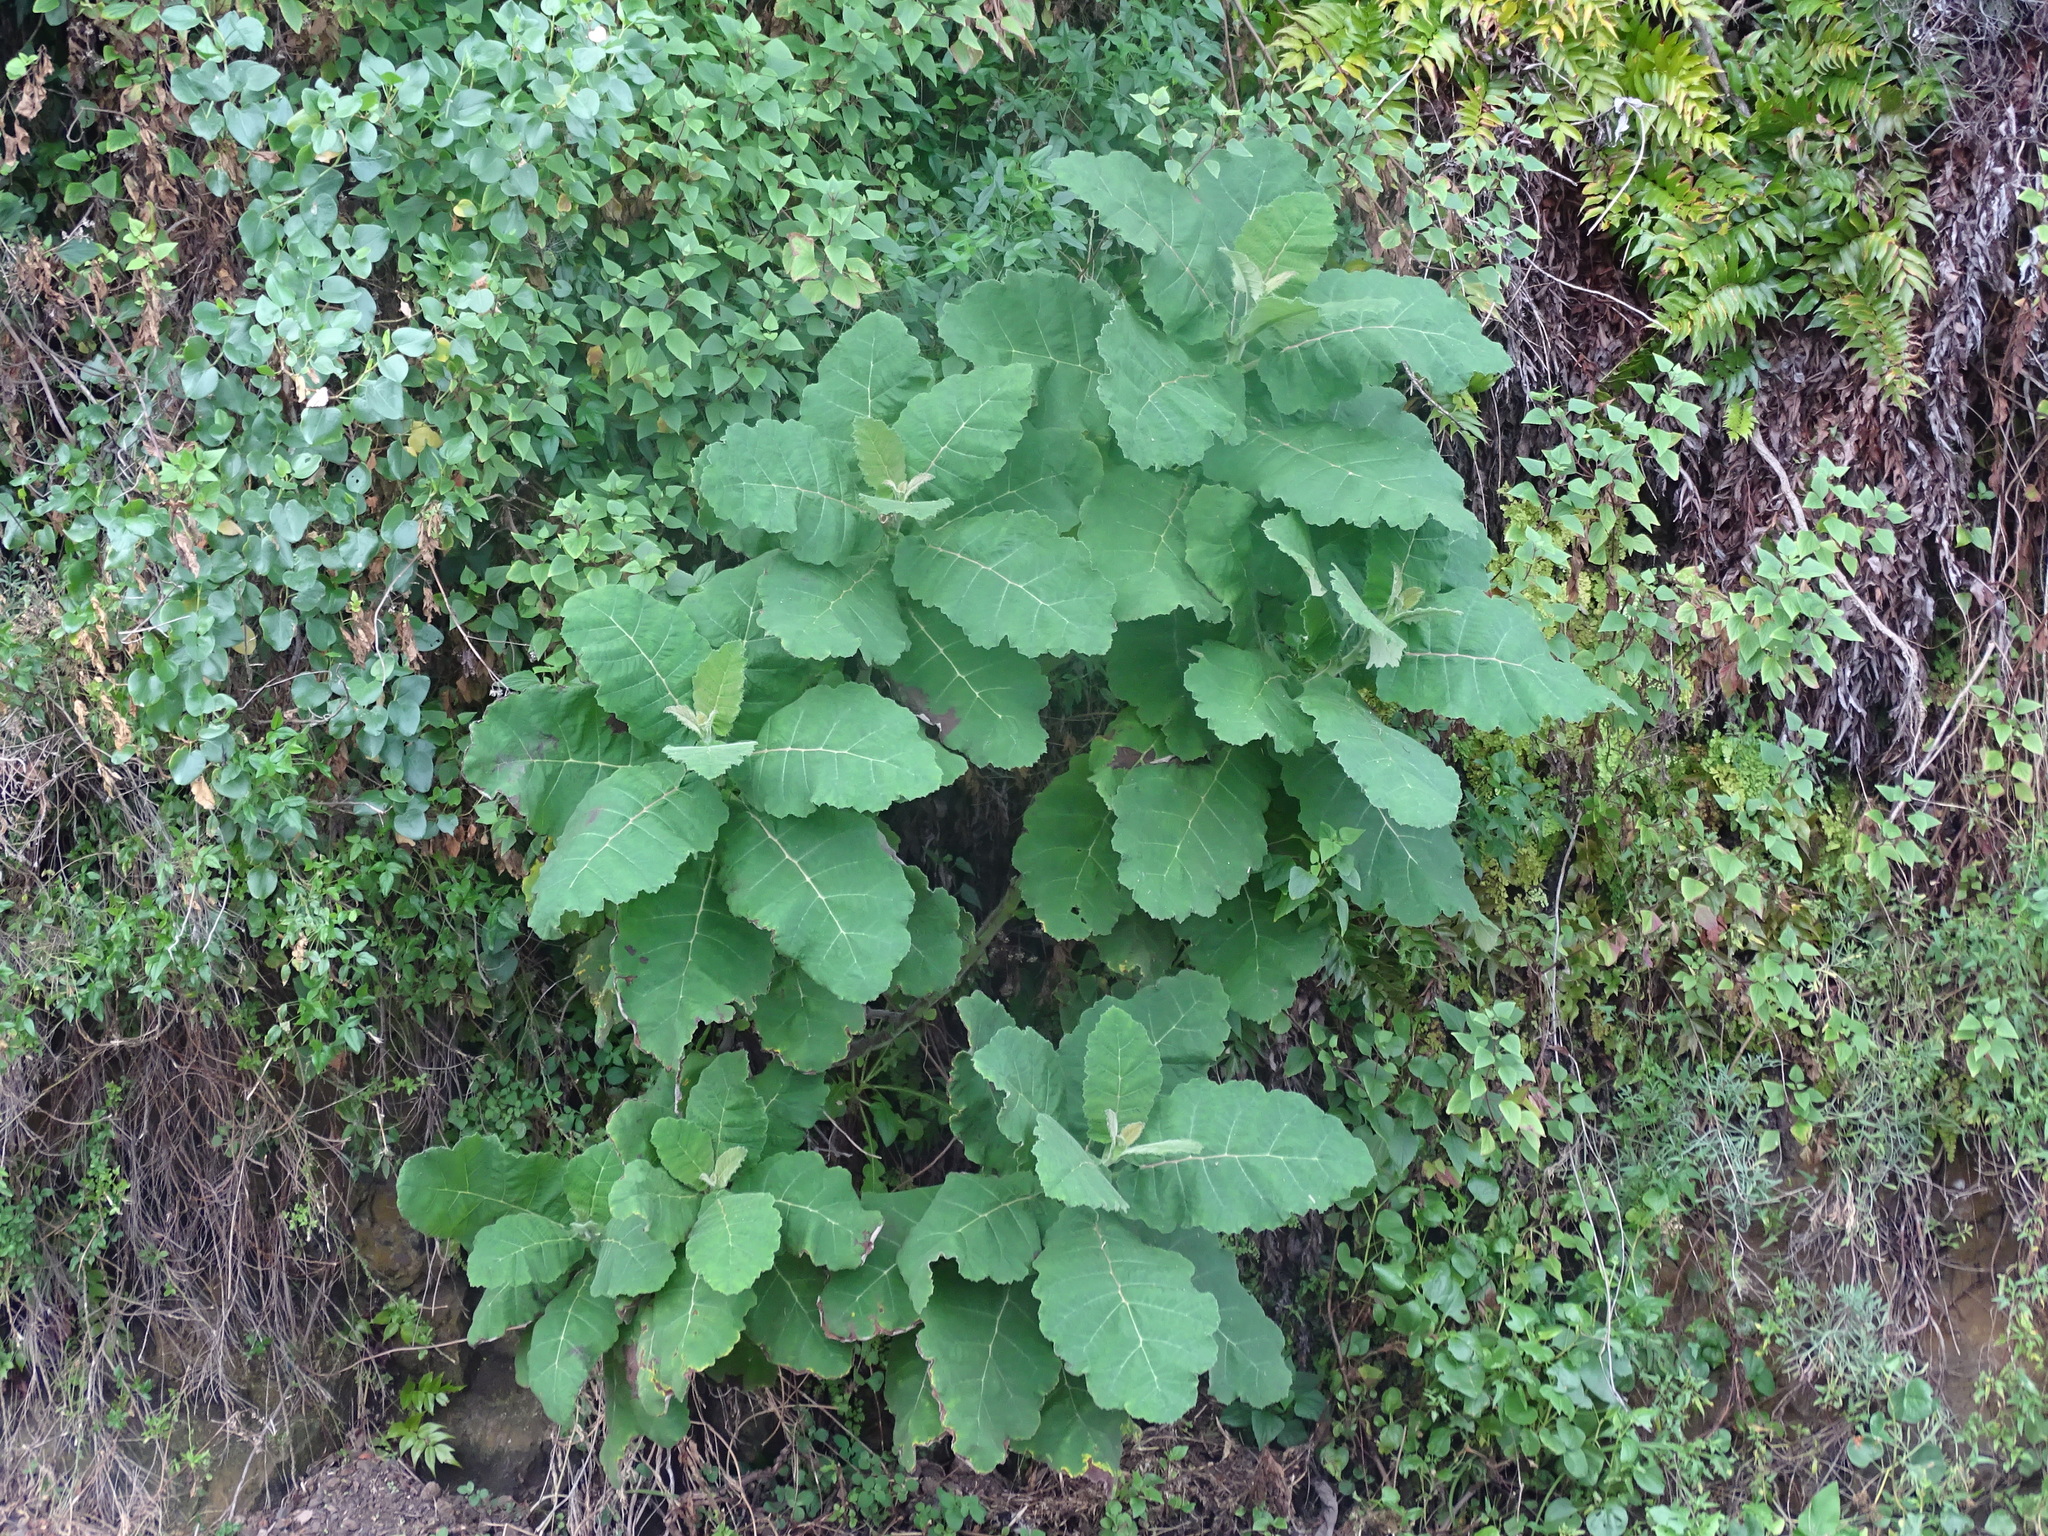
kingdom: Plantae
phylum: Tracheophyta
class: Magnoliopsida
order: Boraginales
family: Namaceae
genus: Wigandia
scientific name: Wigandia urens
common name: Caracus wigandia
